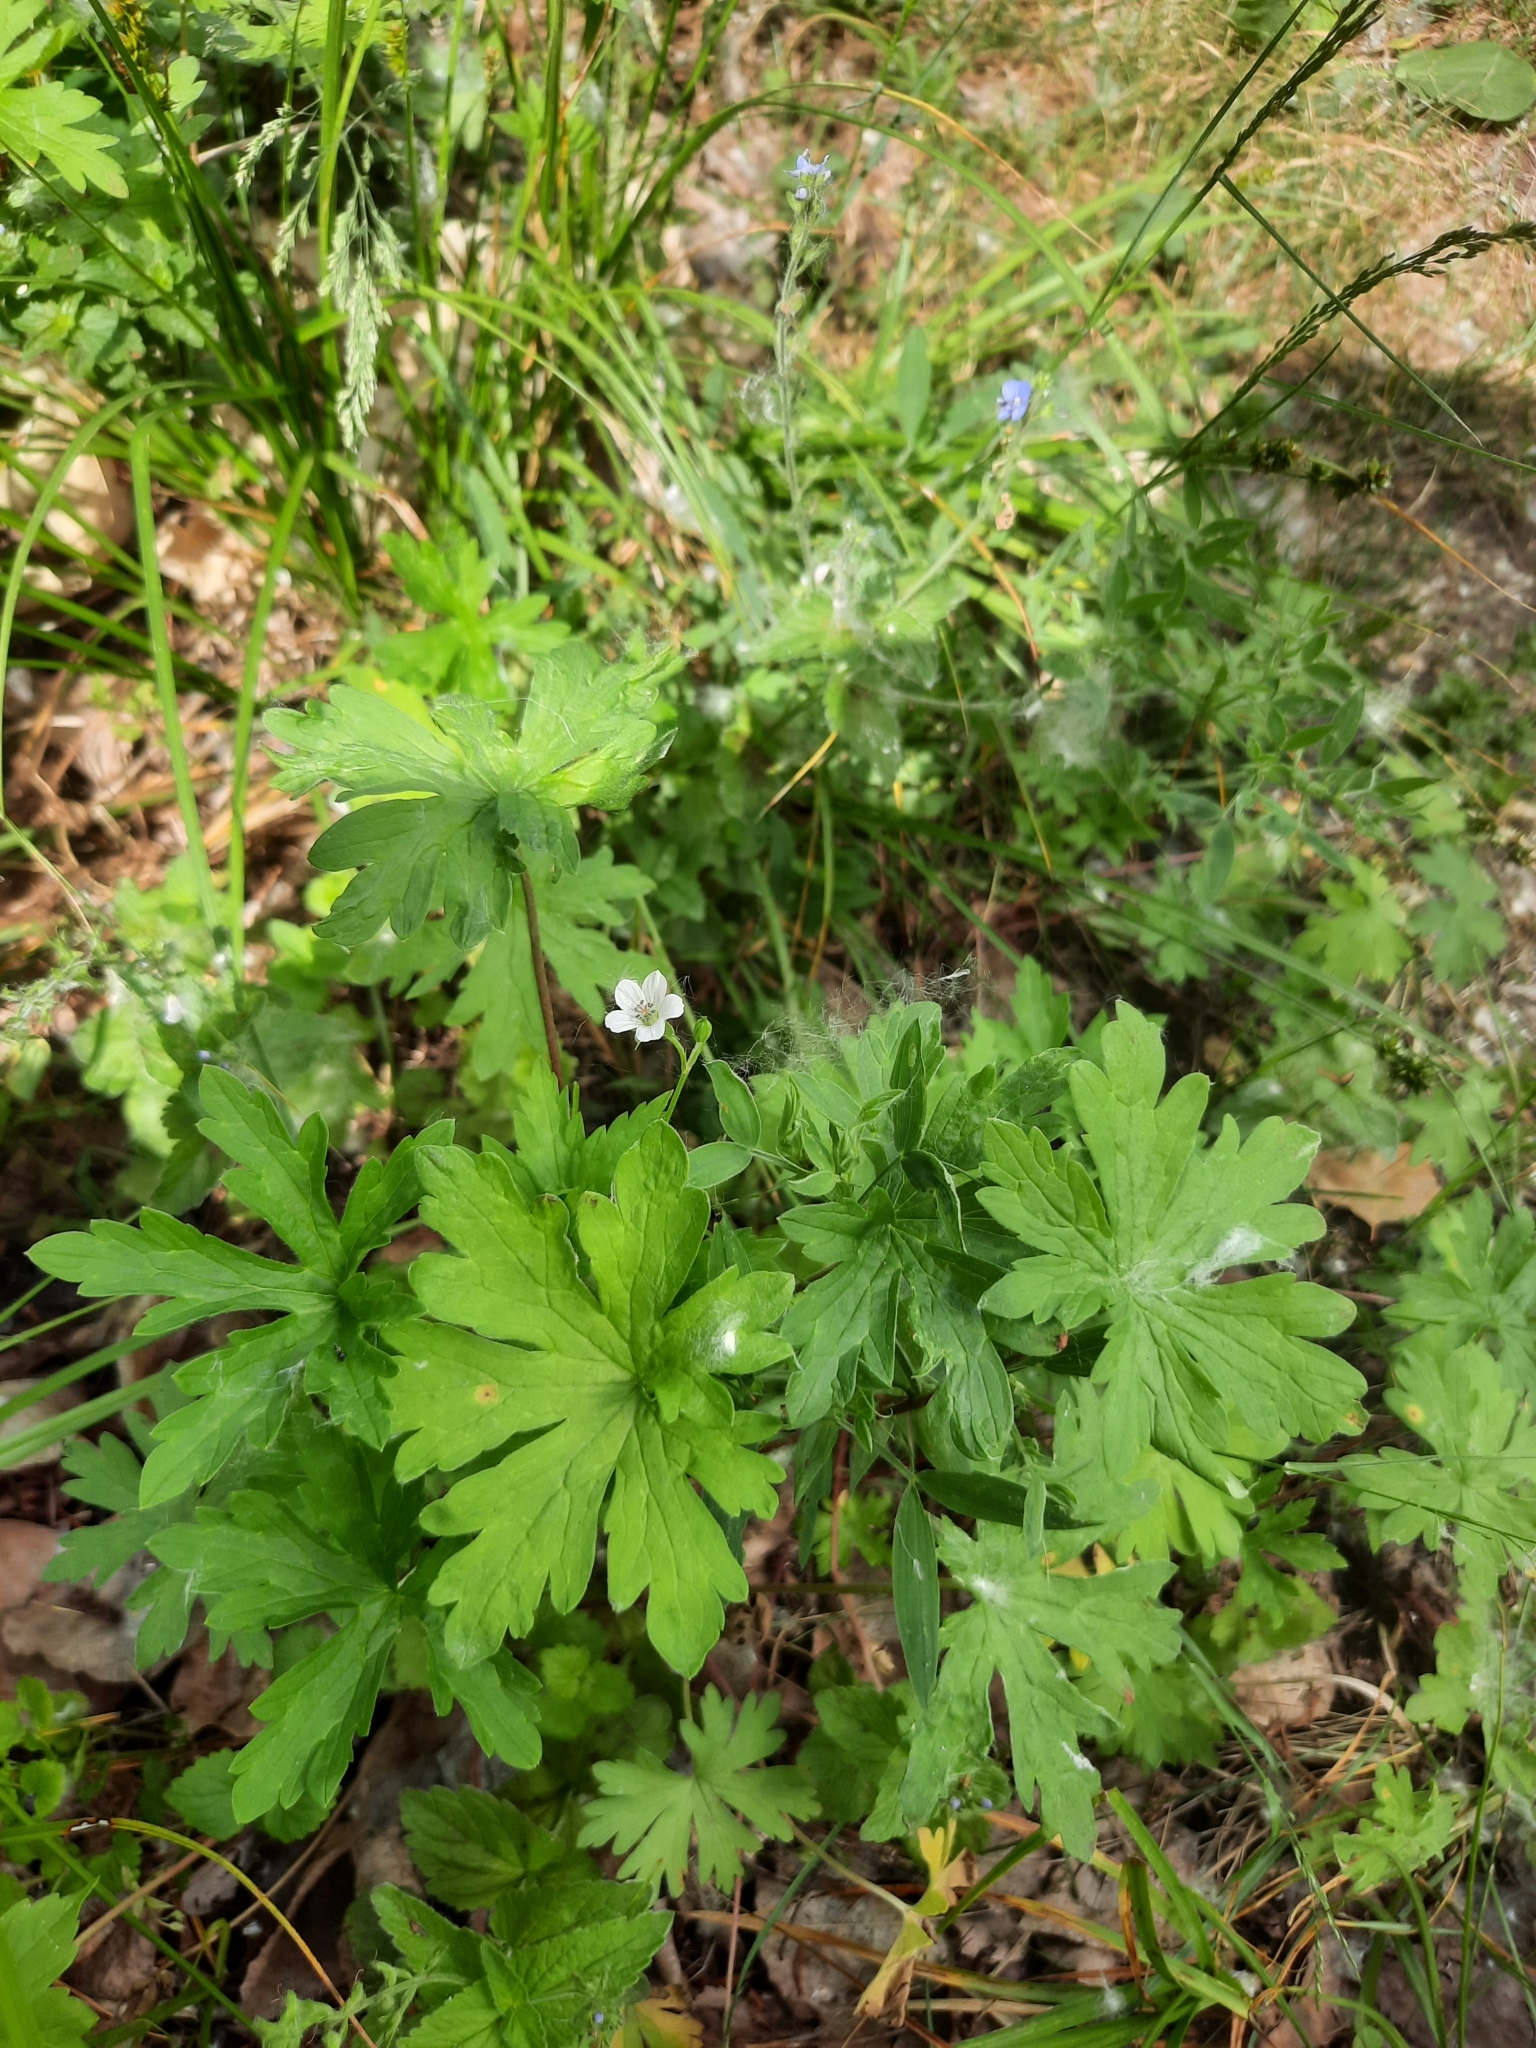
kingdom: Plantae
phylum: Tracheophyta
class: Magnoliopsida
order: Geraniales
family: Geraniaceae
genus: Geranium
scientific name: Geranium sibiricum
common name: Siberian crane's-bill
